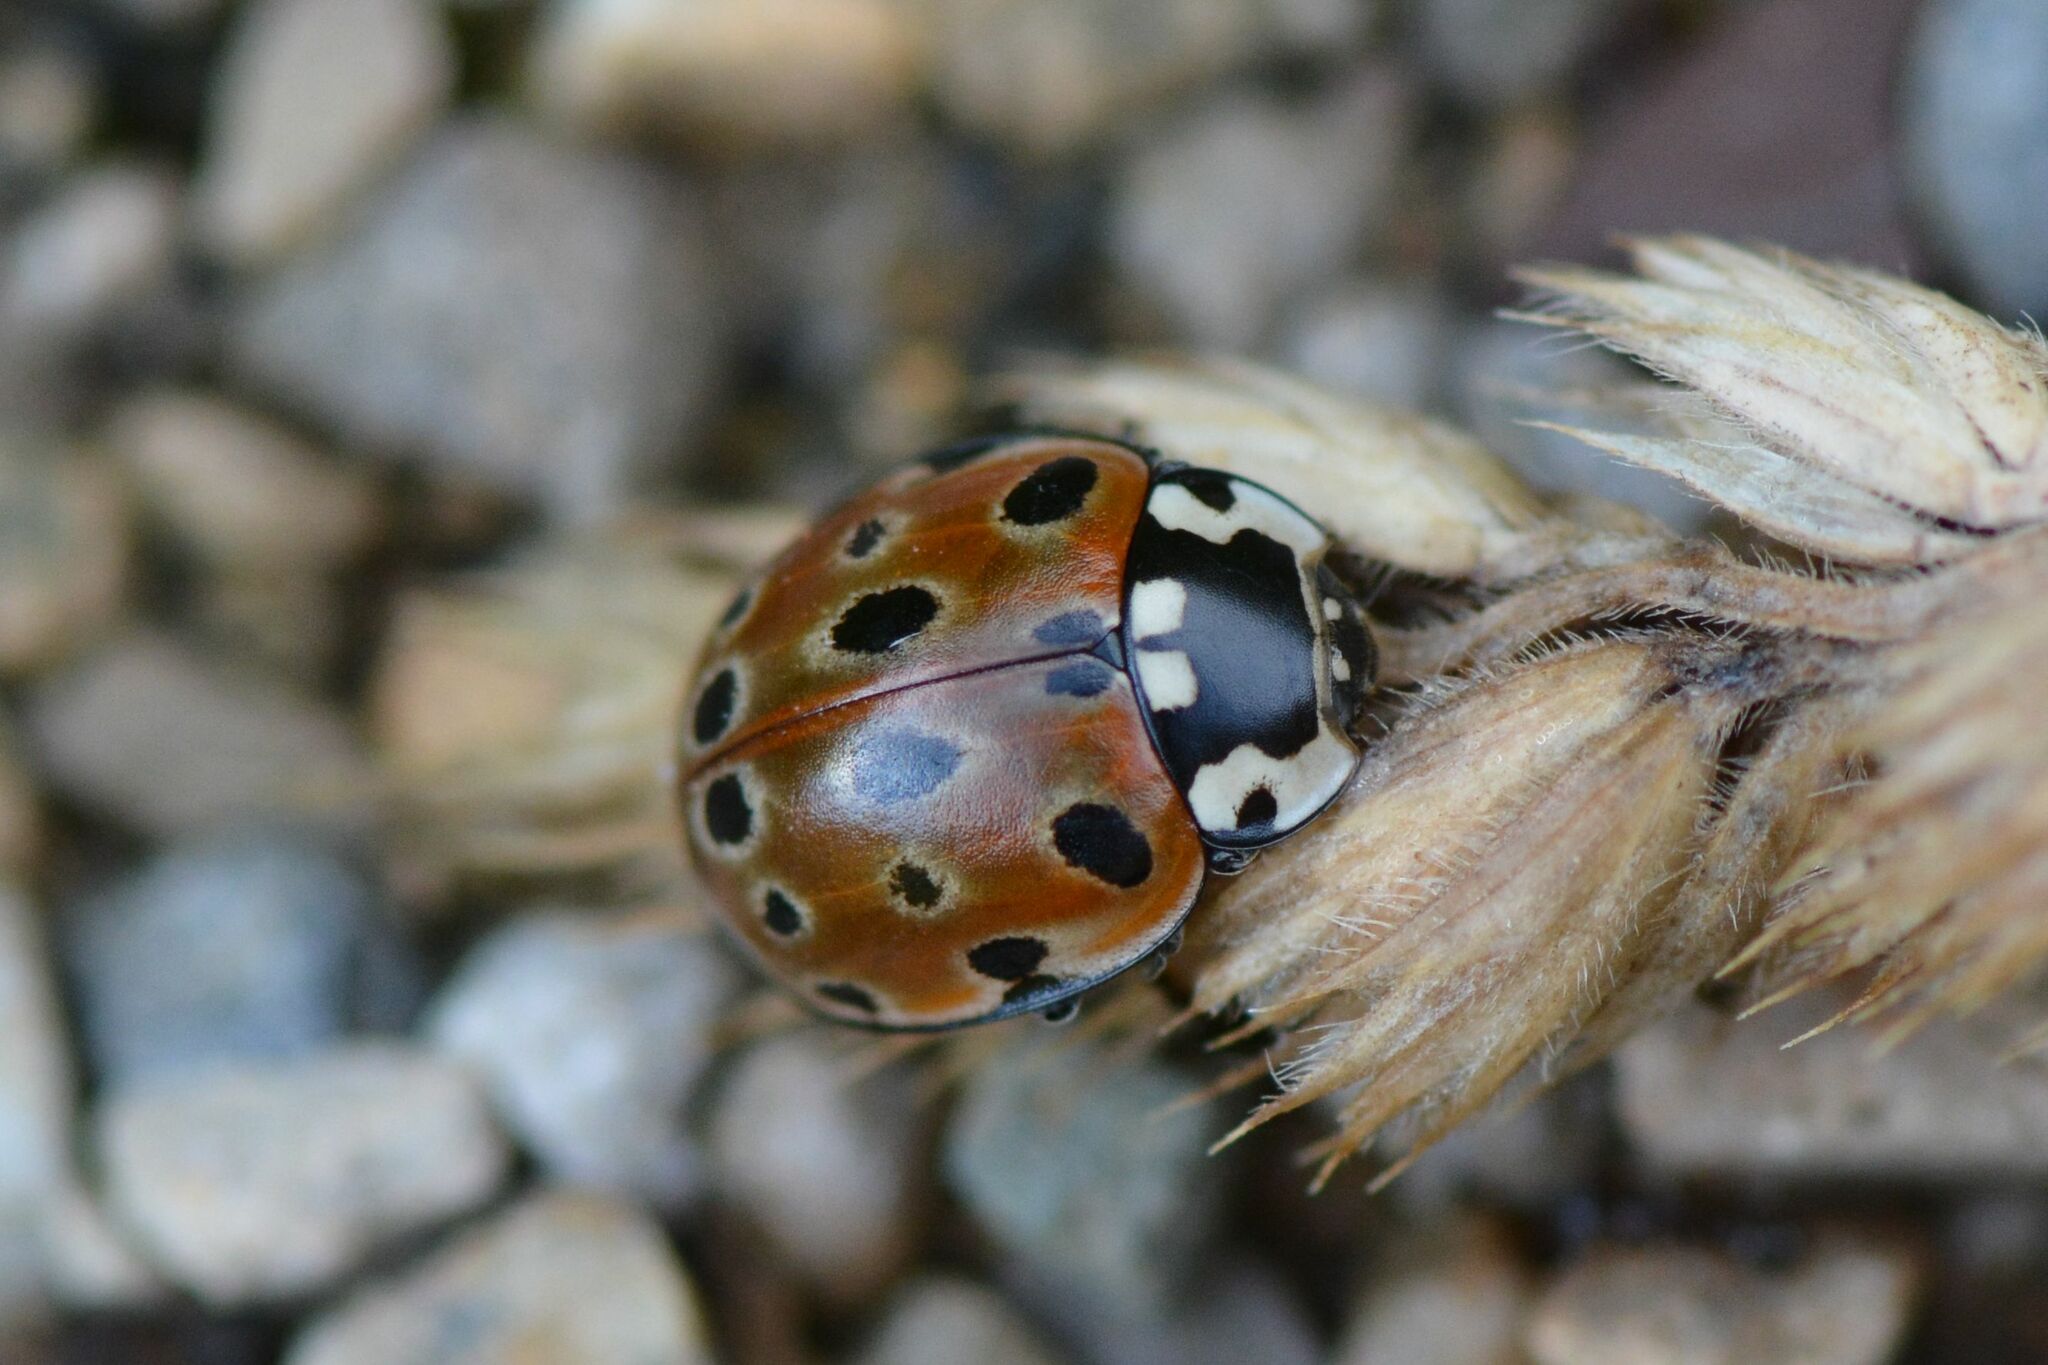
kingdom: Animalia
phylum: Arthropoda
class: Insecta
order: Coleoptera
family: Coccinellidae
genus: Anatis
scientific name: Anatis ocellata
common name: Eyed ladybird
